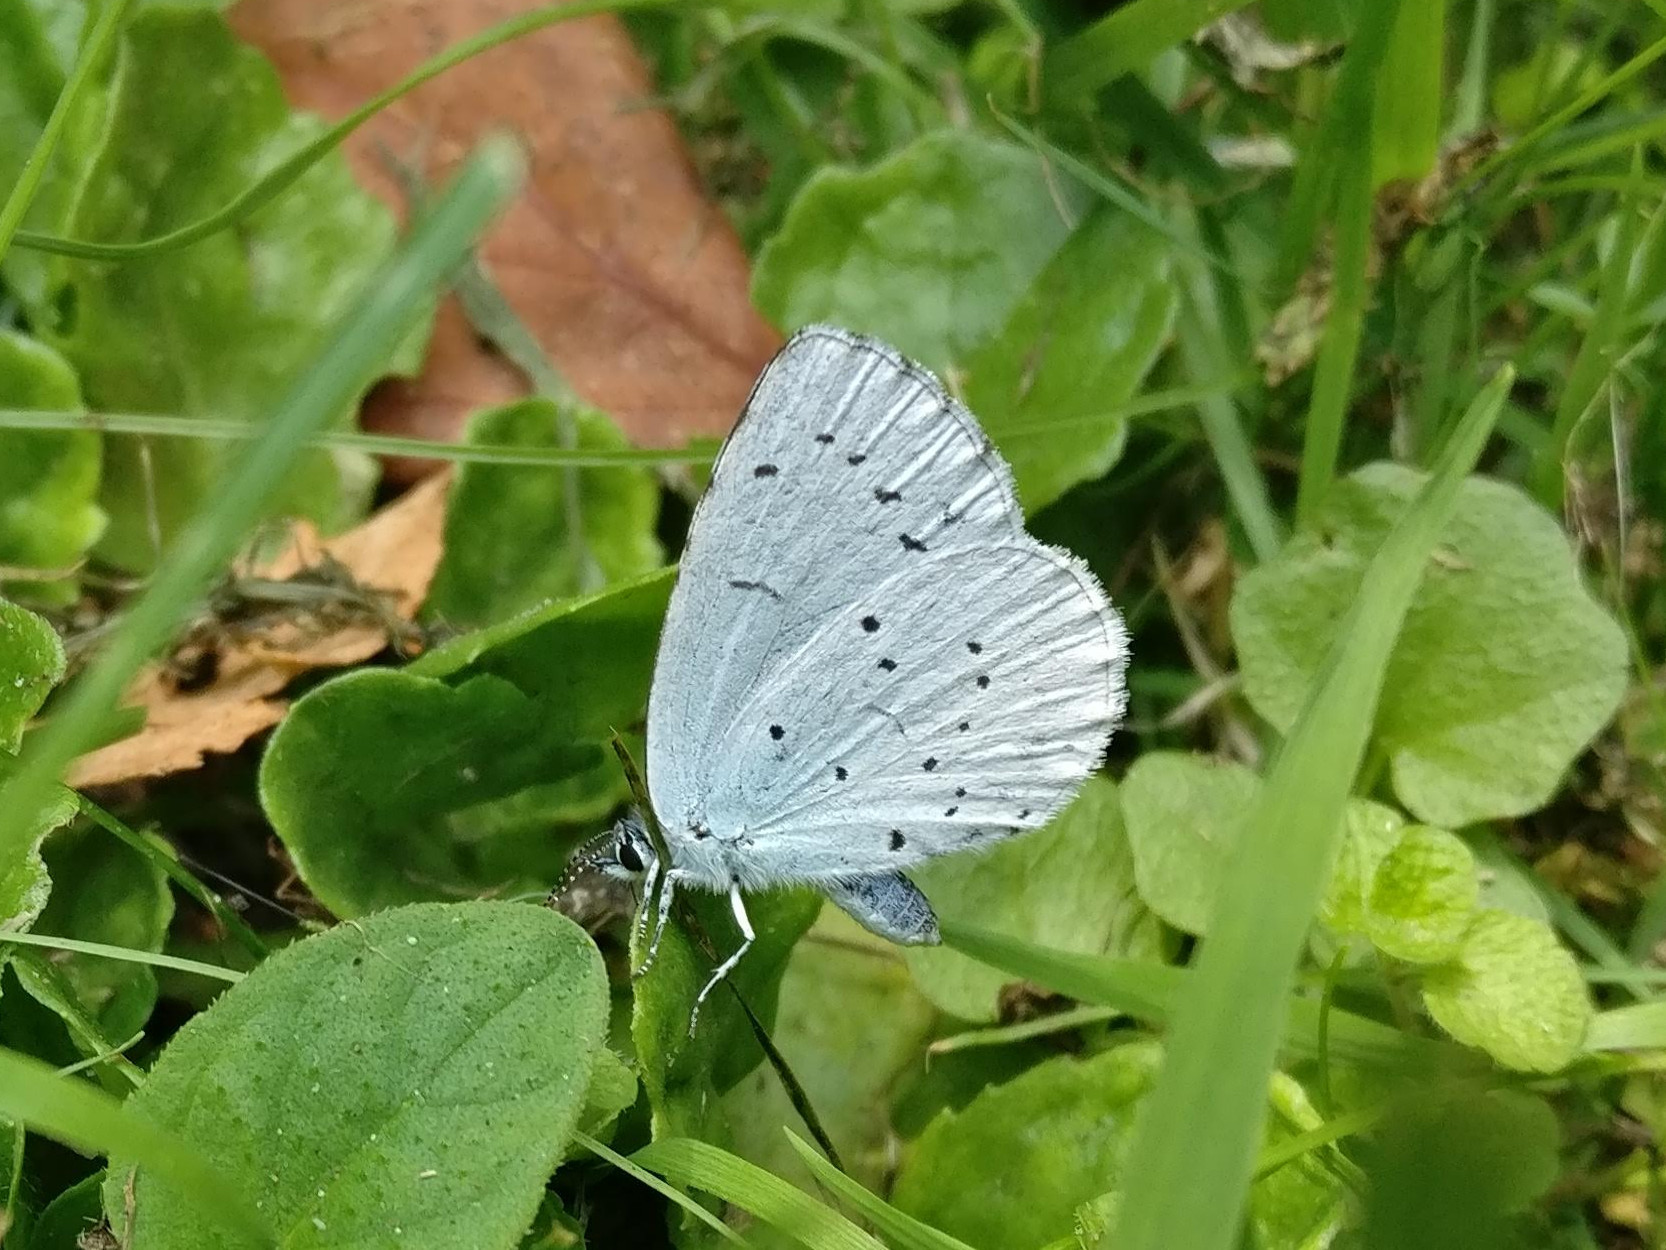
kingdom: Animalia
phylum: Arthropoda
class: Insecta
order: Lepidoptera
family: Lycaenidae
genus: Celastrina
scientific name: Celastrina argiolus
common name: Holly blue
